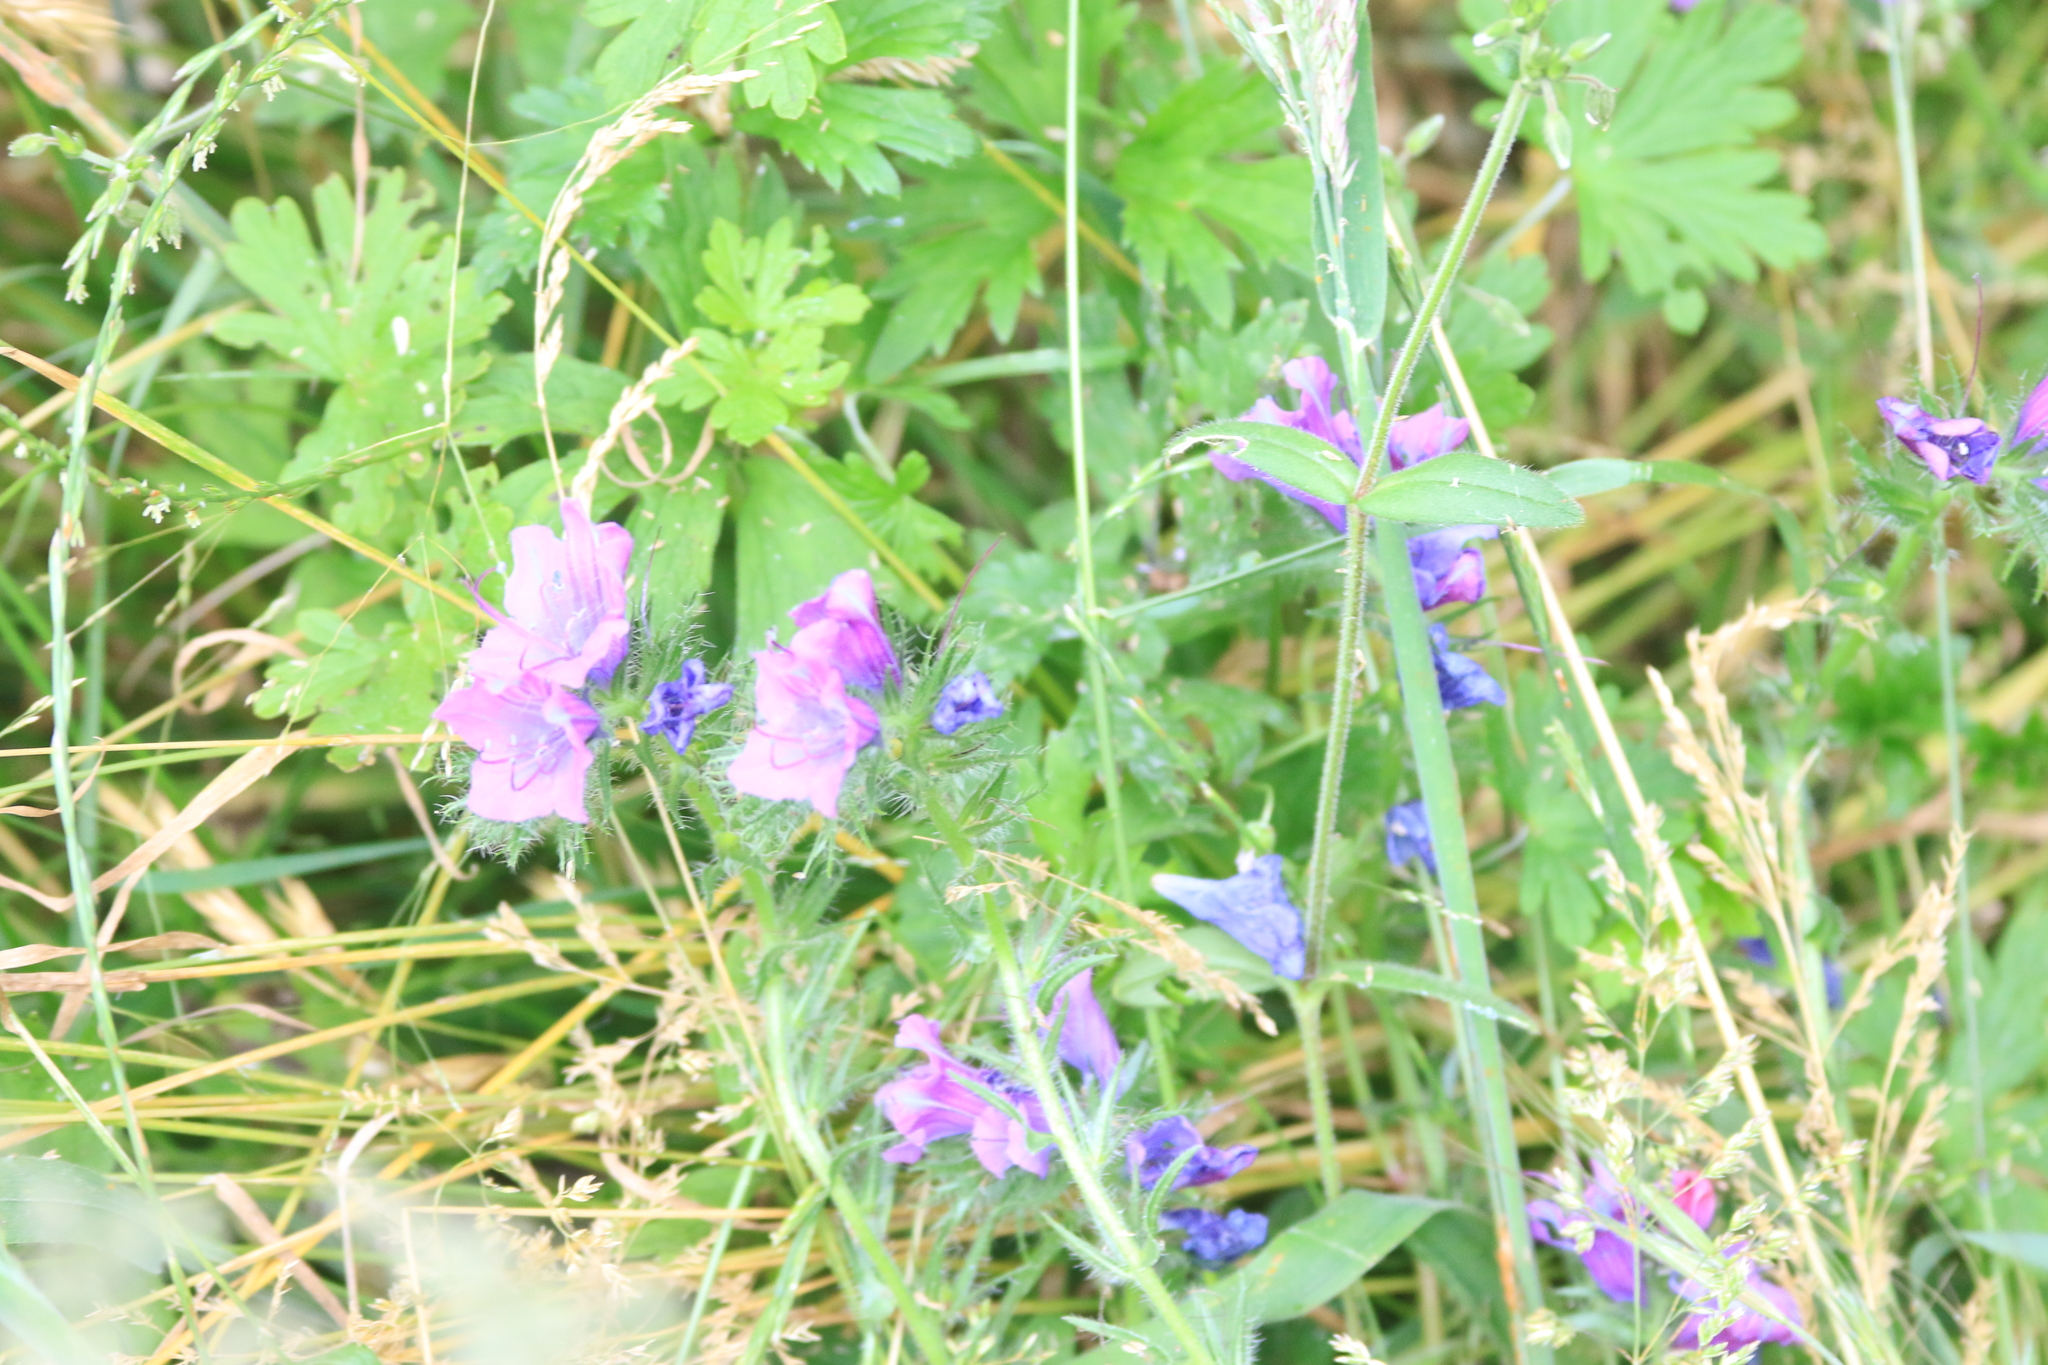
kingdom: Plantae
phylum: Tracheophyta
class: Magnoliopsida
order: Boraginales
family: Boraginaceae
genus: Echium
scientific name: Echium plantagineum
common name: Purple viper's-bugloss
